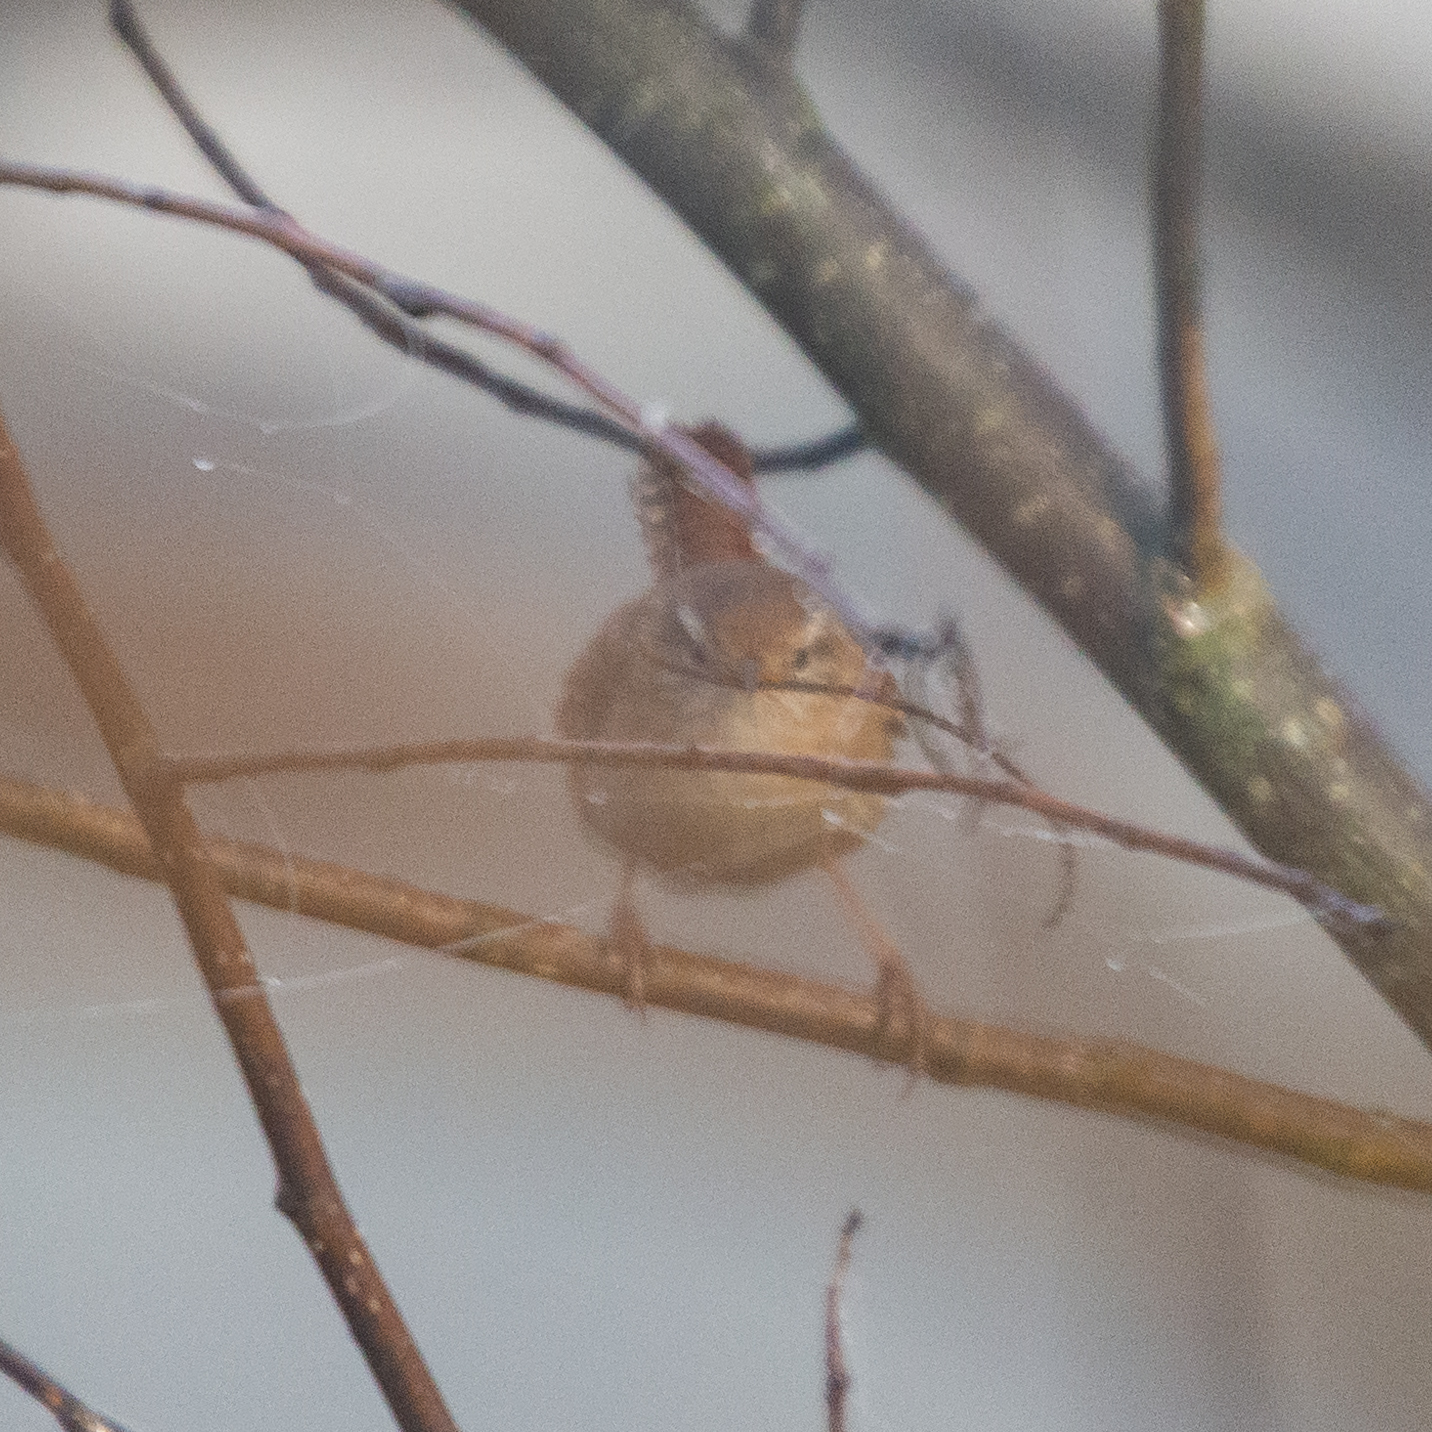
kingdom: Animalia
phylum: Chordata
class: Aves
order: Passeriformes
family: Troglodytidae
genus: Troglodytes
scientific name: Troglodytes troglodytes
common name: Eurasian wren
